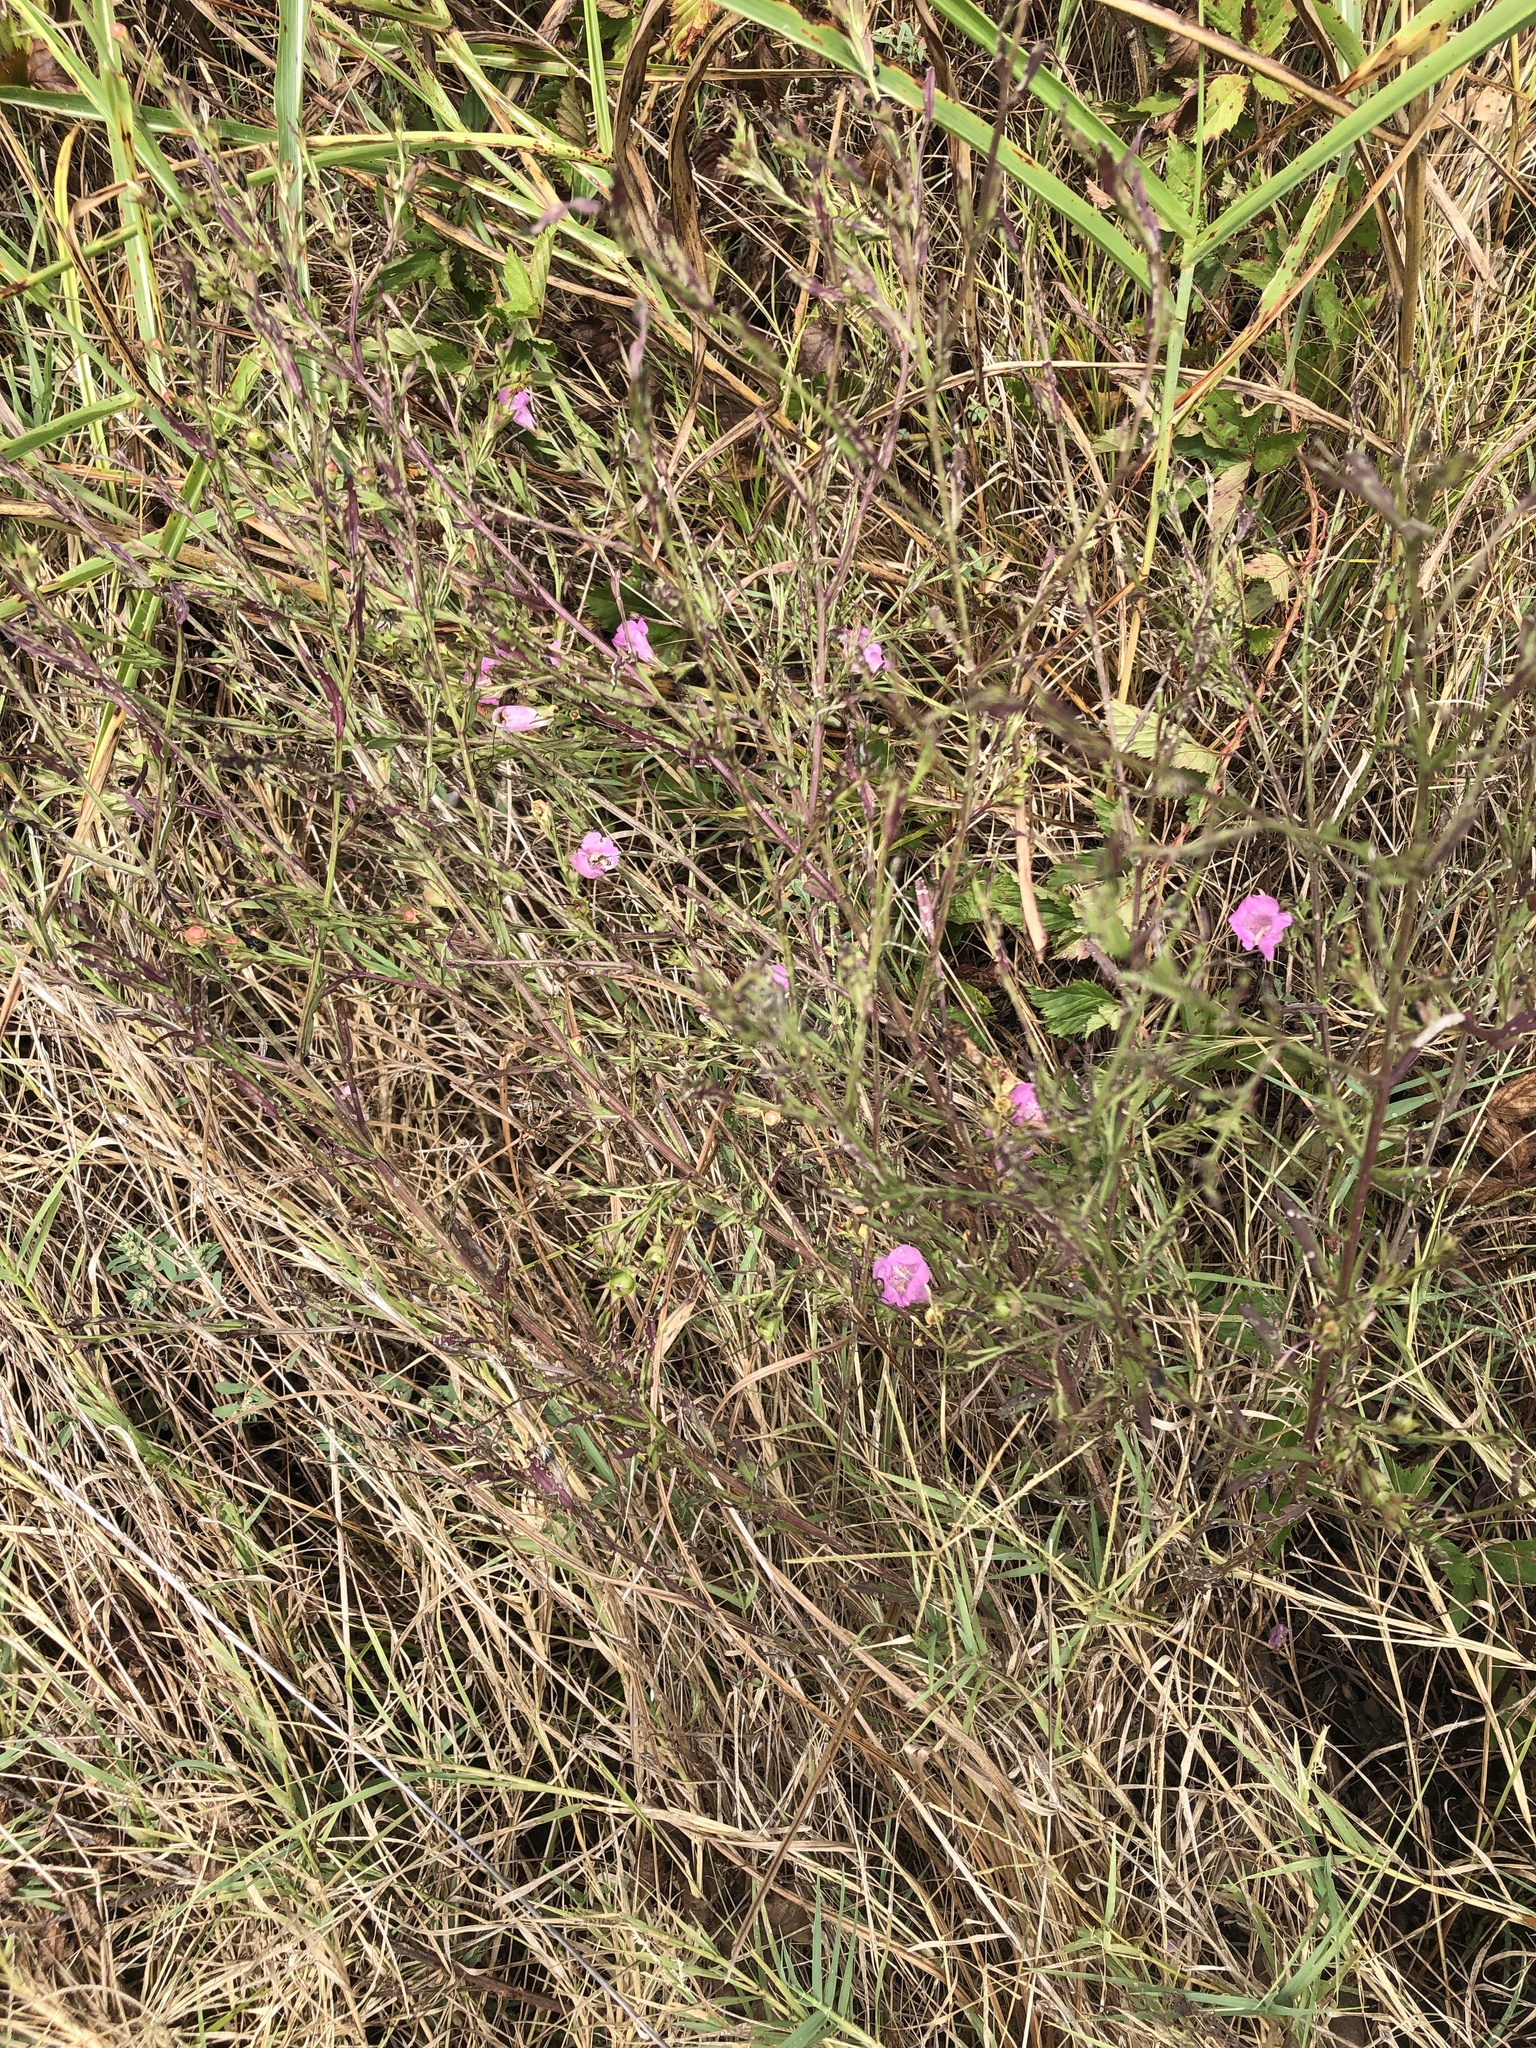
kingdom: Plantae
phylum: Tracheophyta
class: Magnoliopsida
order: Lamiales
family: Orobanchaceae
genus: Agalinis
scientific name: Agalinis heterophylla
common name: Prairie agalinis
